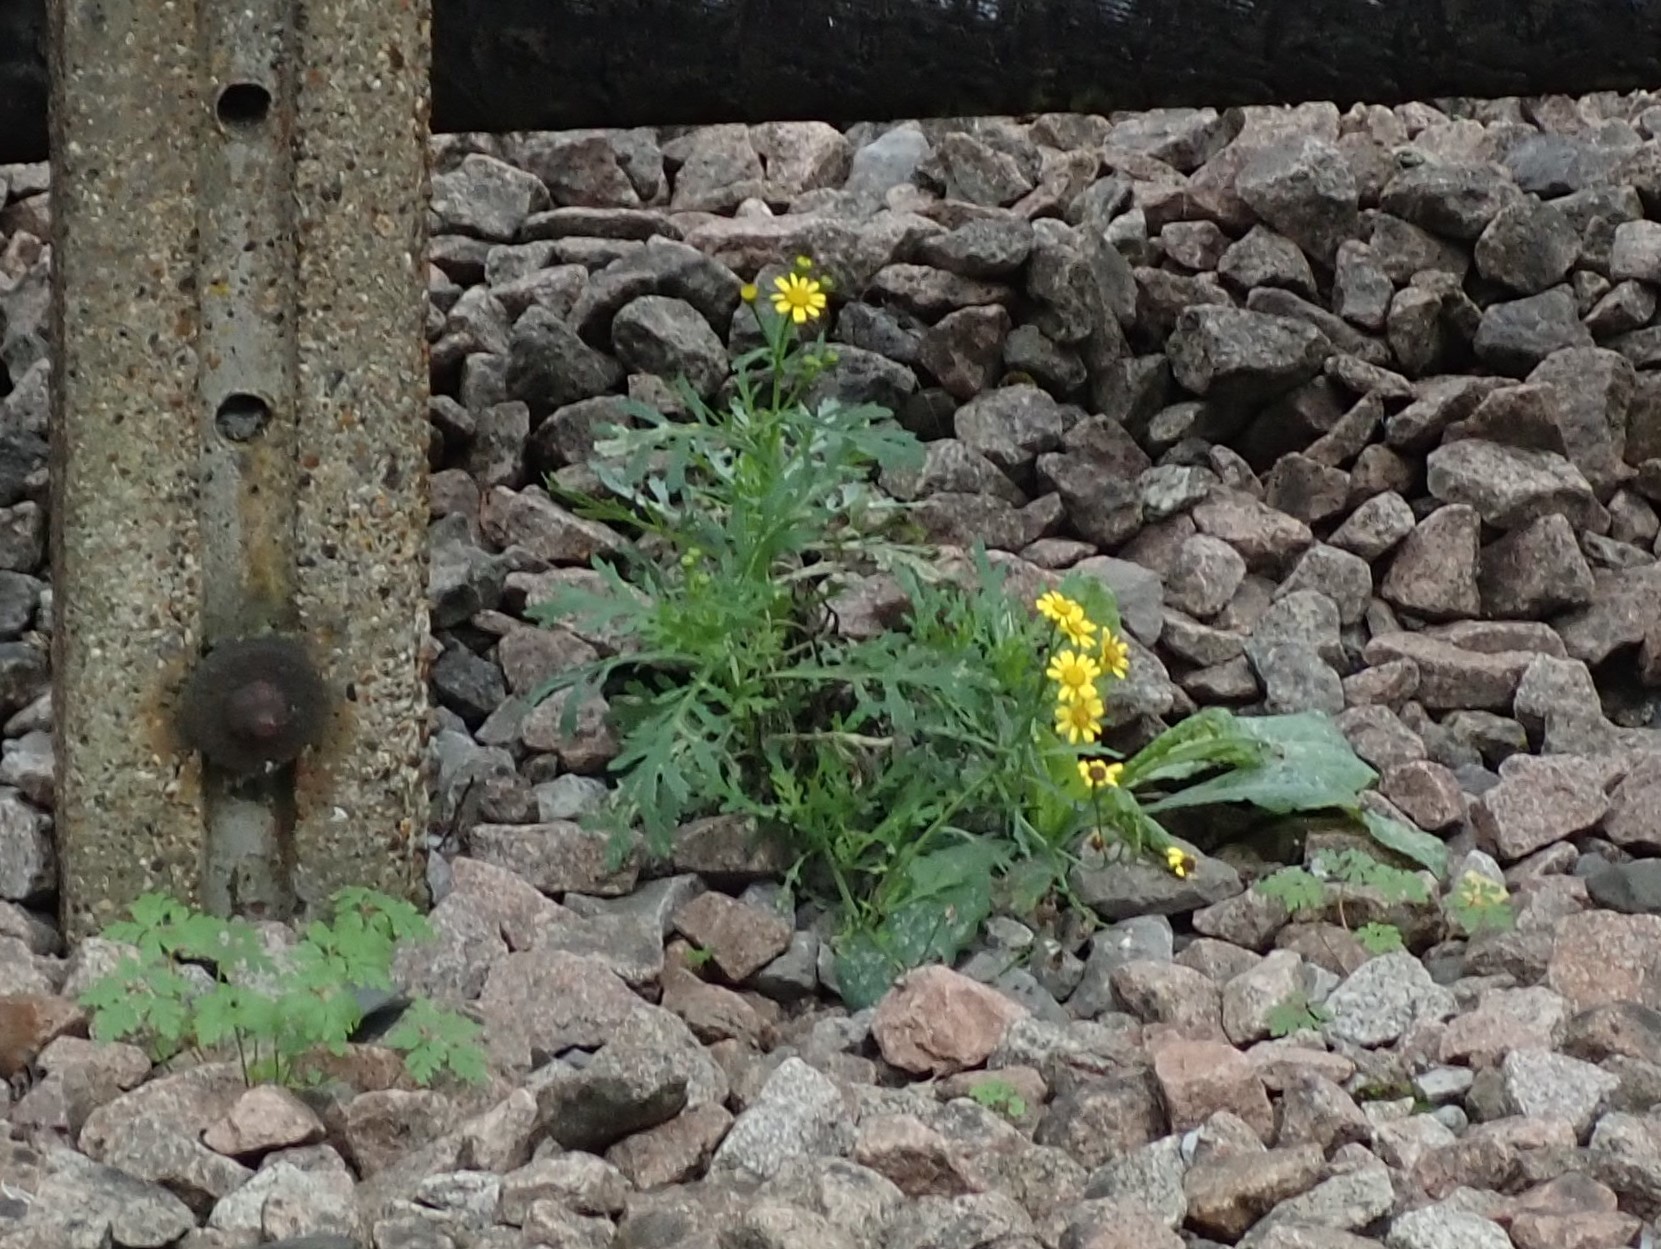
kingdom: Plantae
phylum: Tracheophyta
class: Magnoliopsida
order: Asterales
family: Asteraceae
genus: Senecio
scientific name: Senecio squalidus
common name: Oxford ragwort
